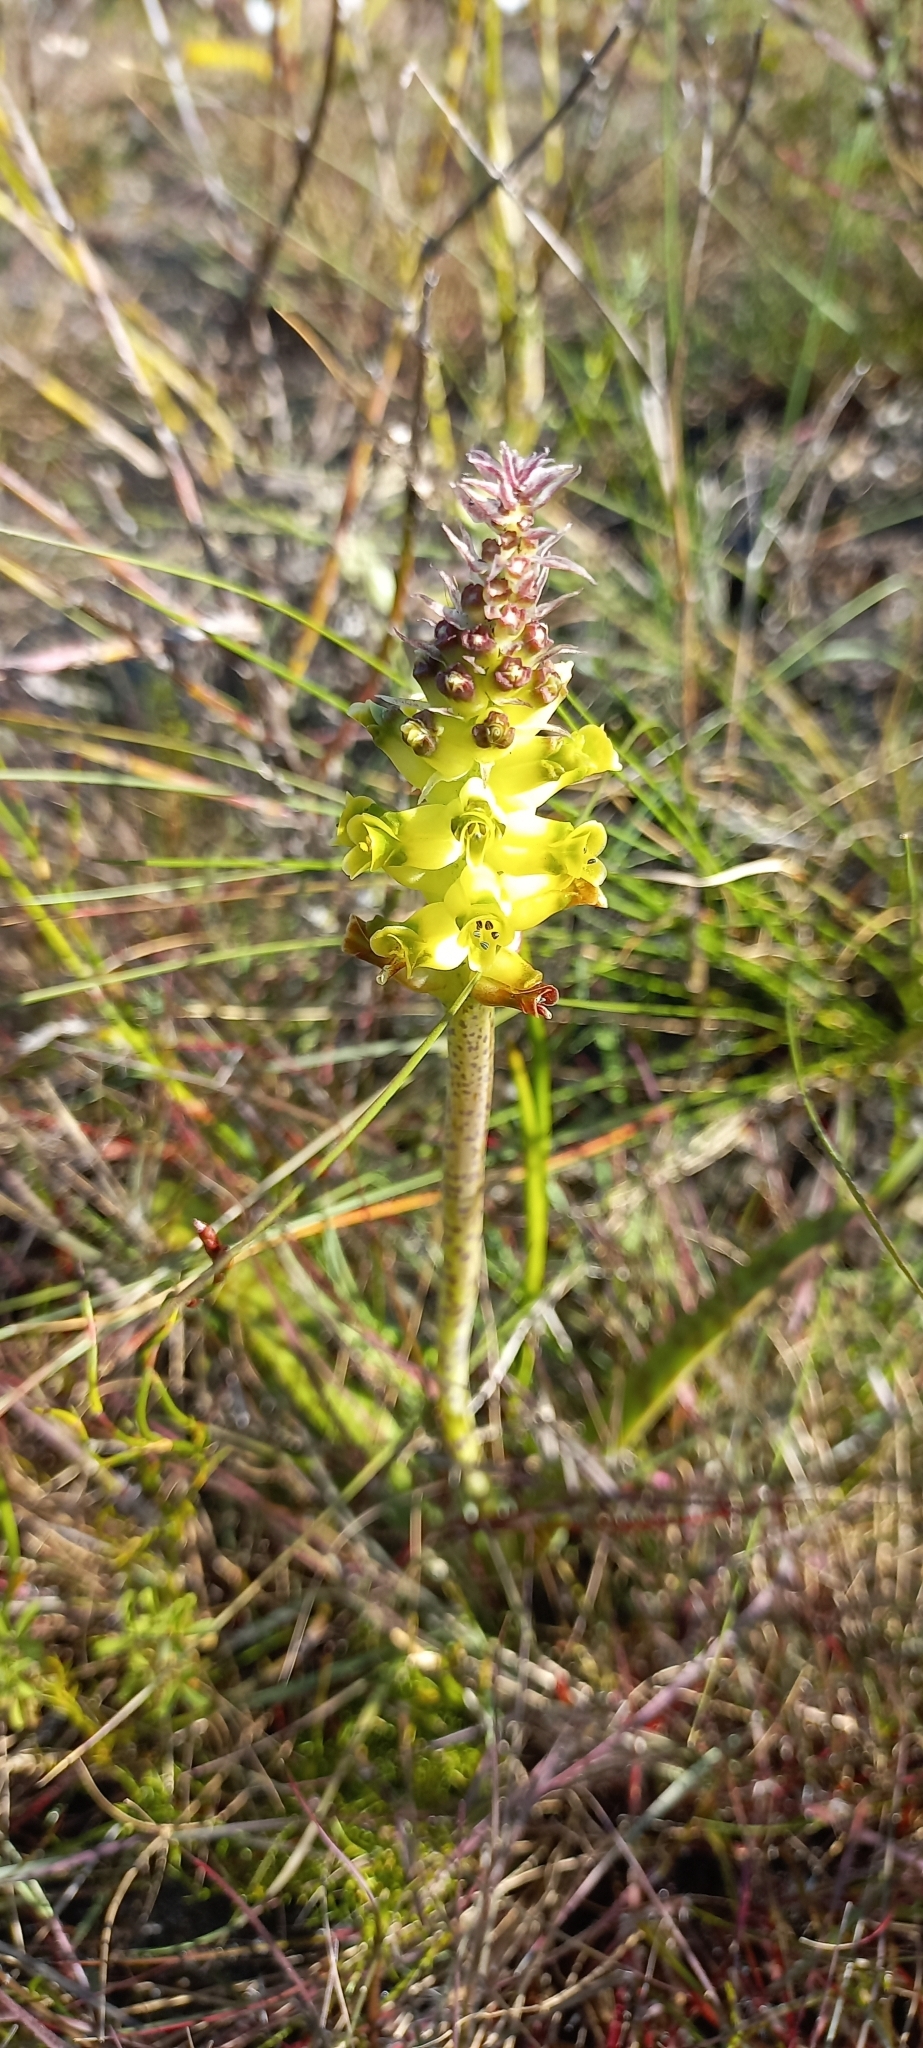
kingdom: Plantae
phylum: Tracheophyta
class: Liliopsida
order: Asparagales
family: Asparagaceae
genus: Lachenalia
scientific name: Lachenalia lutea
